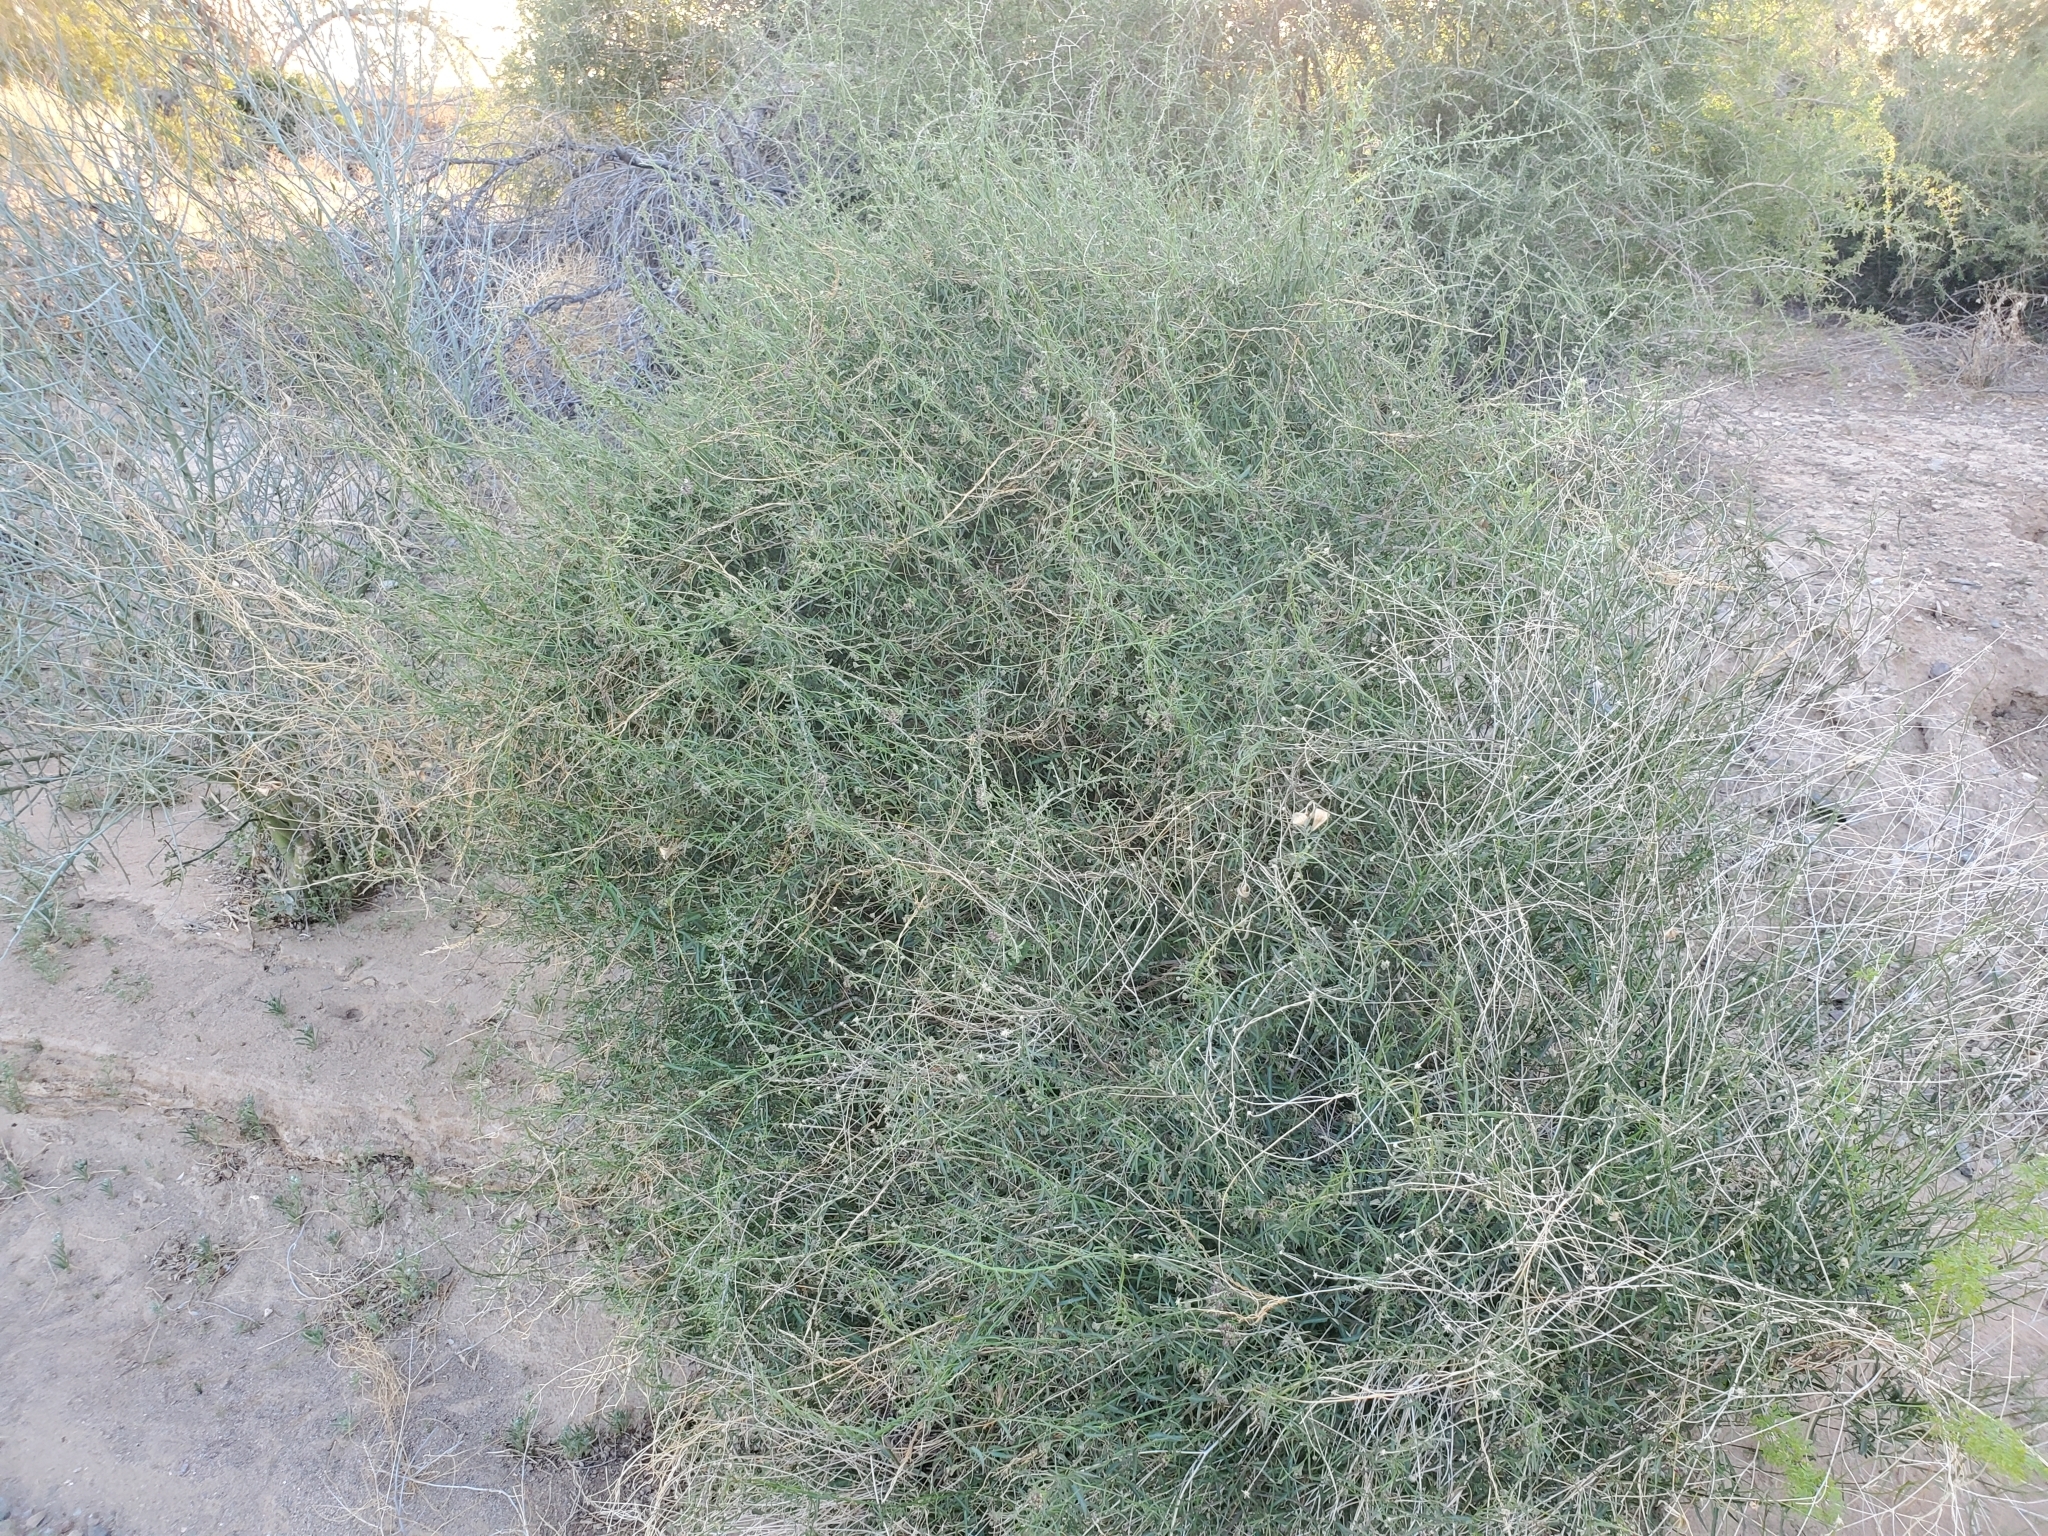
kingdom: Plantae
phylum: Tracheophyta
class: Magnoliopsida
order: Gentianales
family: Apocynaceae
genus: Funastrum
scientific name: Funastrum heterophyllum
